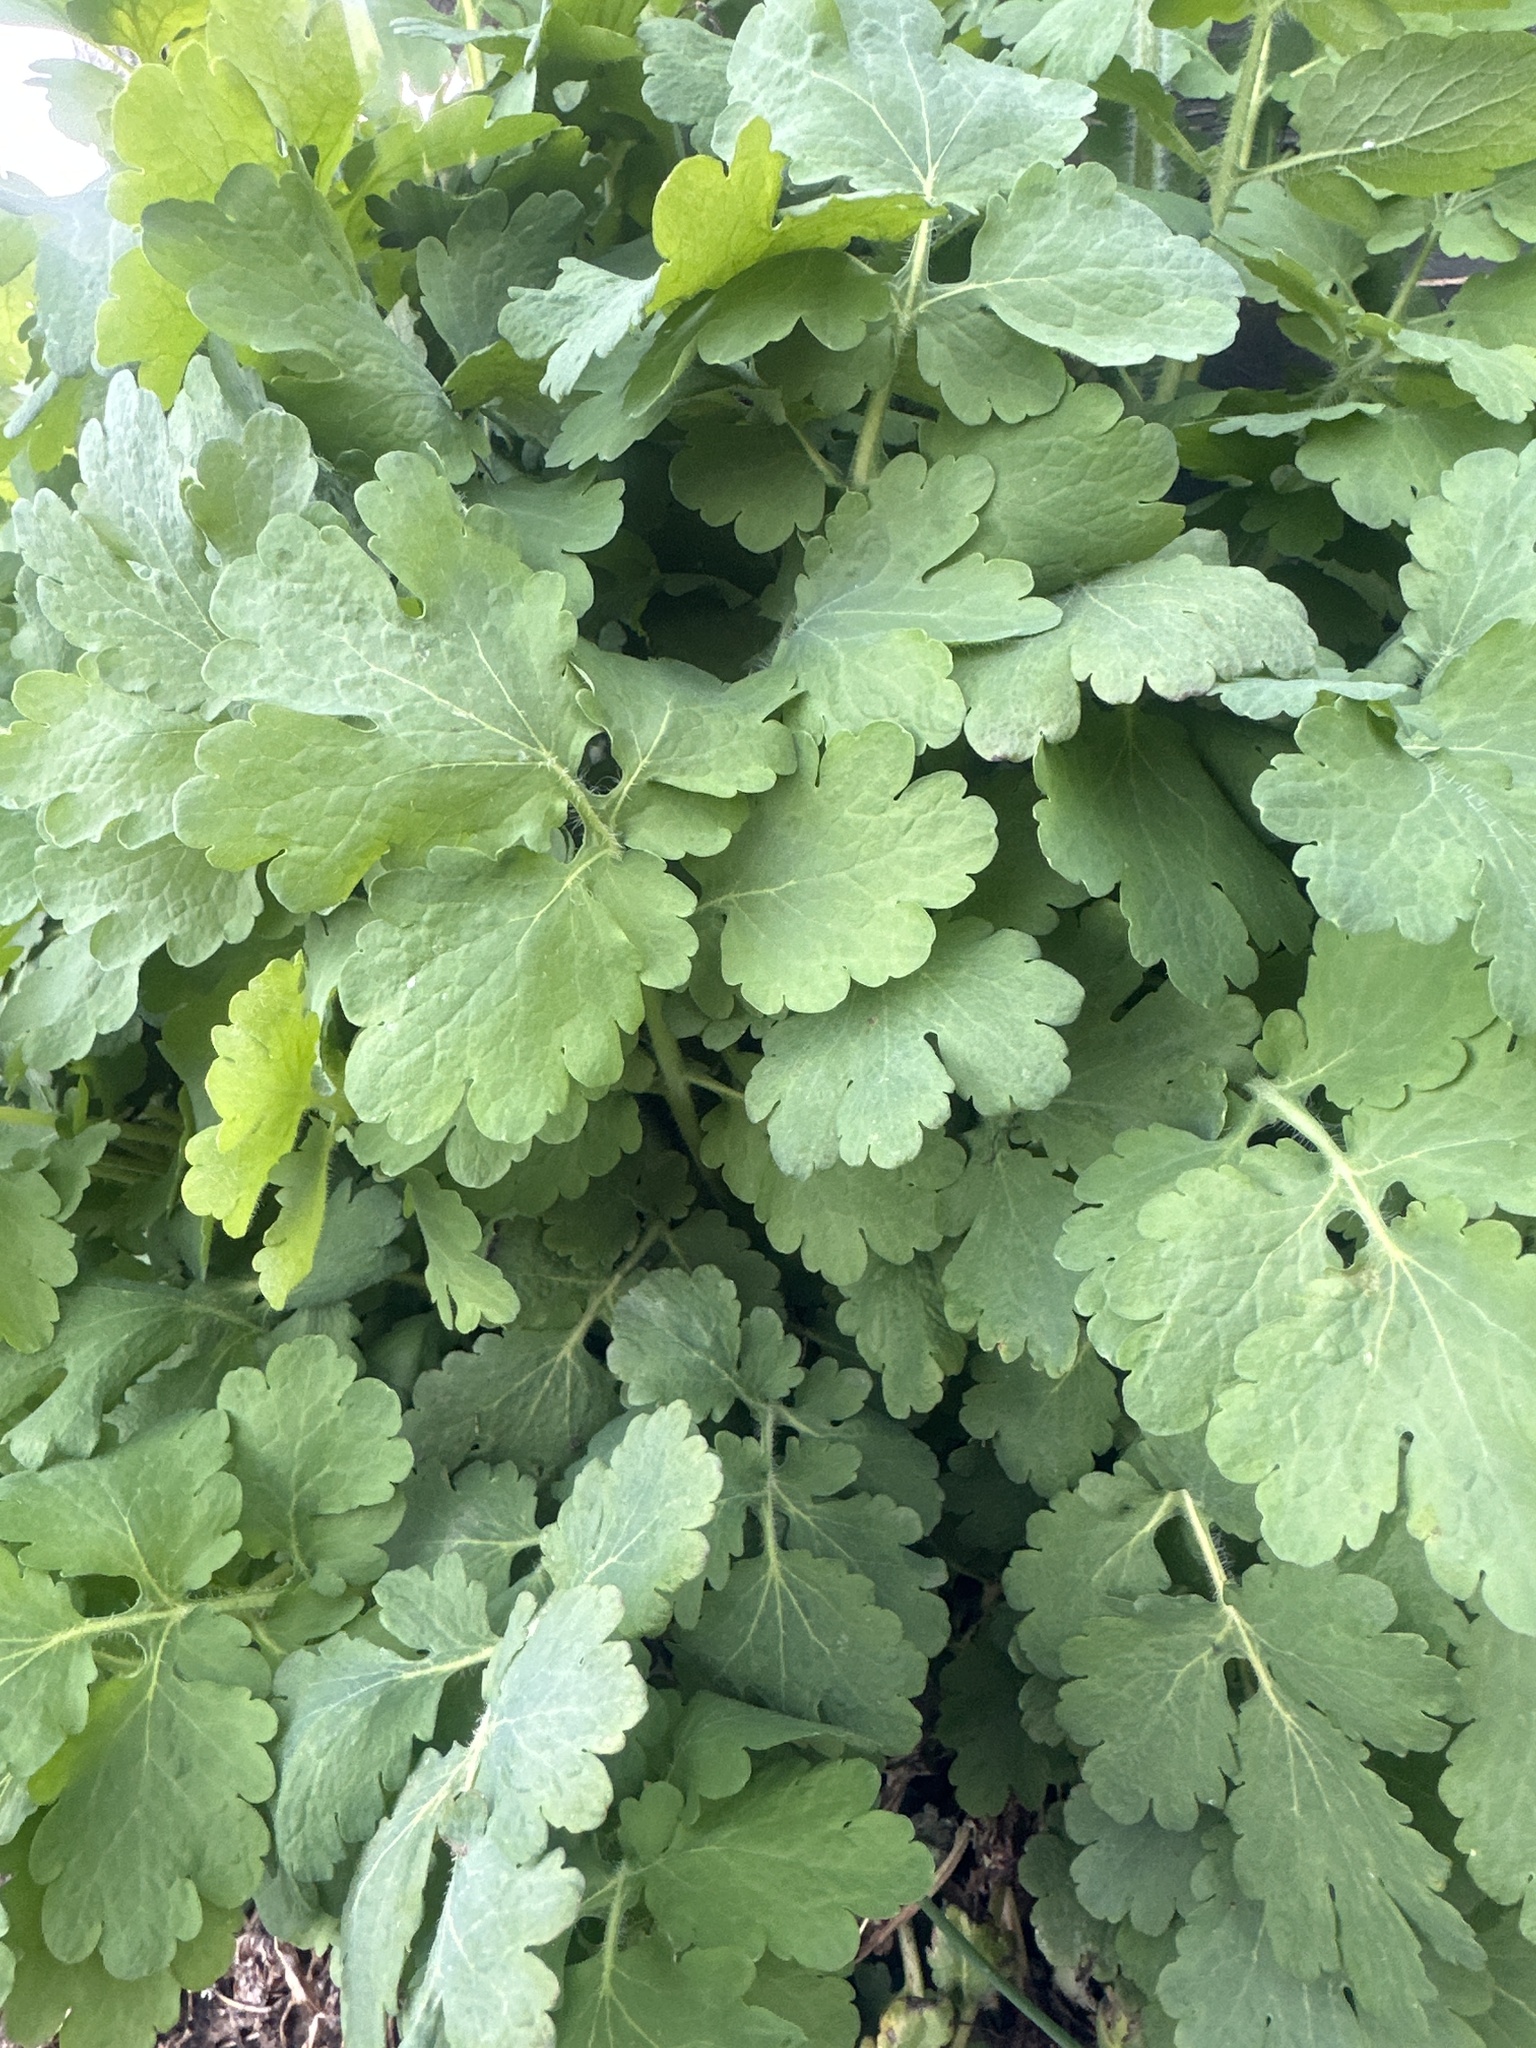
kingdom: Plantae
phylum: Tracheophyta
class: Magnoliopsida
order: Ranunculales
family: Papaveraceae
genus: Chelidonium
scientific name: Chelidonium majus
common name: Greater celandine
